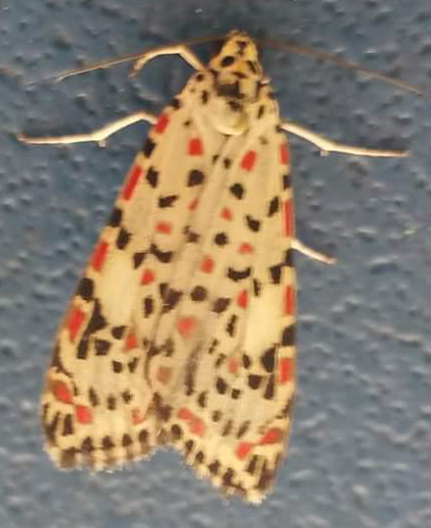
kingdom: Animalia
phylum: Arthropoda
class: Insecta
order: Lepidoptera
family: Erebidae
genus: Utetheisa
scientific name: Utetheisa pulchelloides
